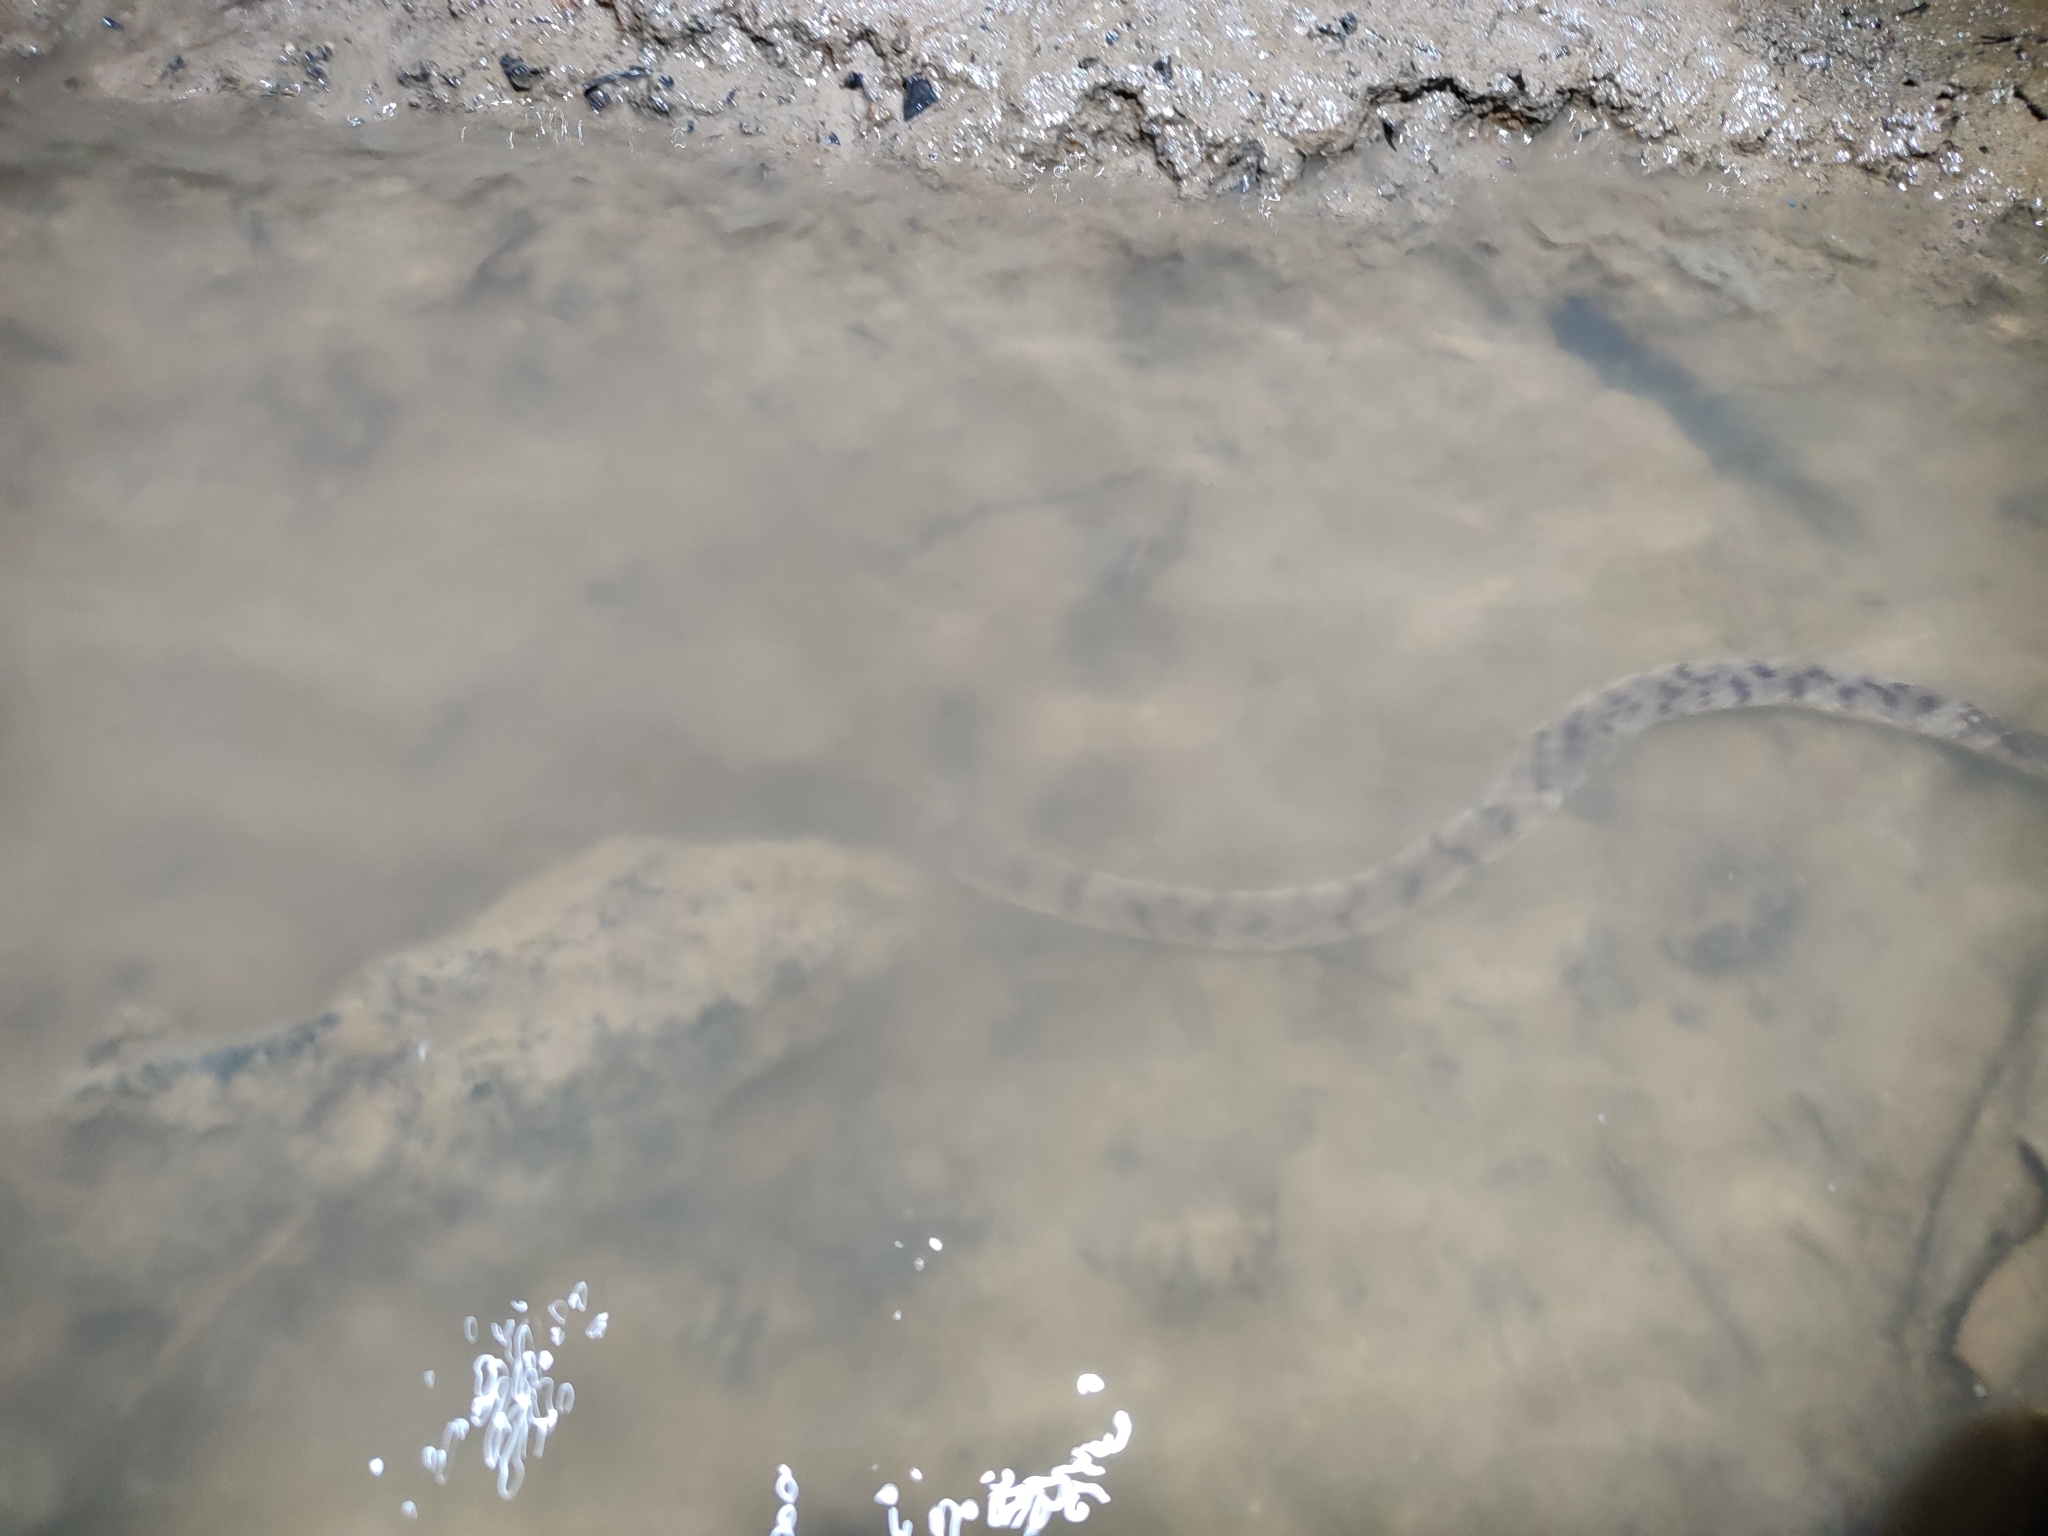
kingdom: Animalia
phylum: Chordata
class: Squamata
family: Homalopsidae
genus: Cerberus
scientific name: Cerberus schneiderii
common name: Southeast asian bockadam
